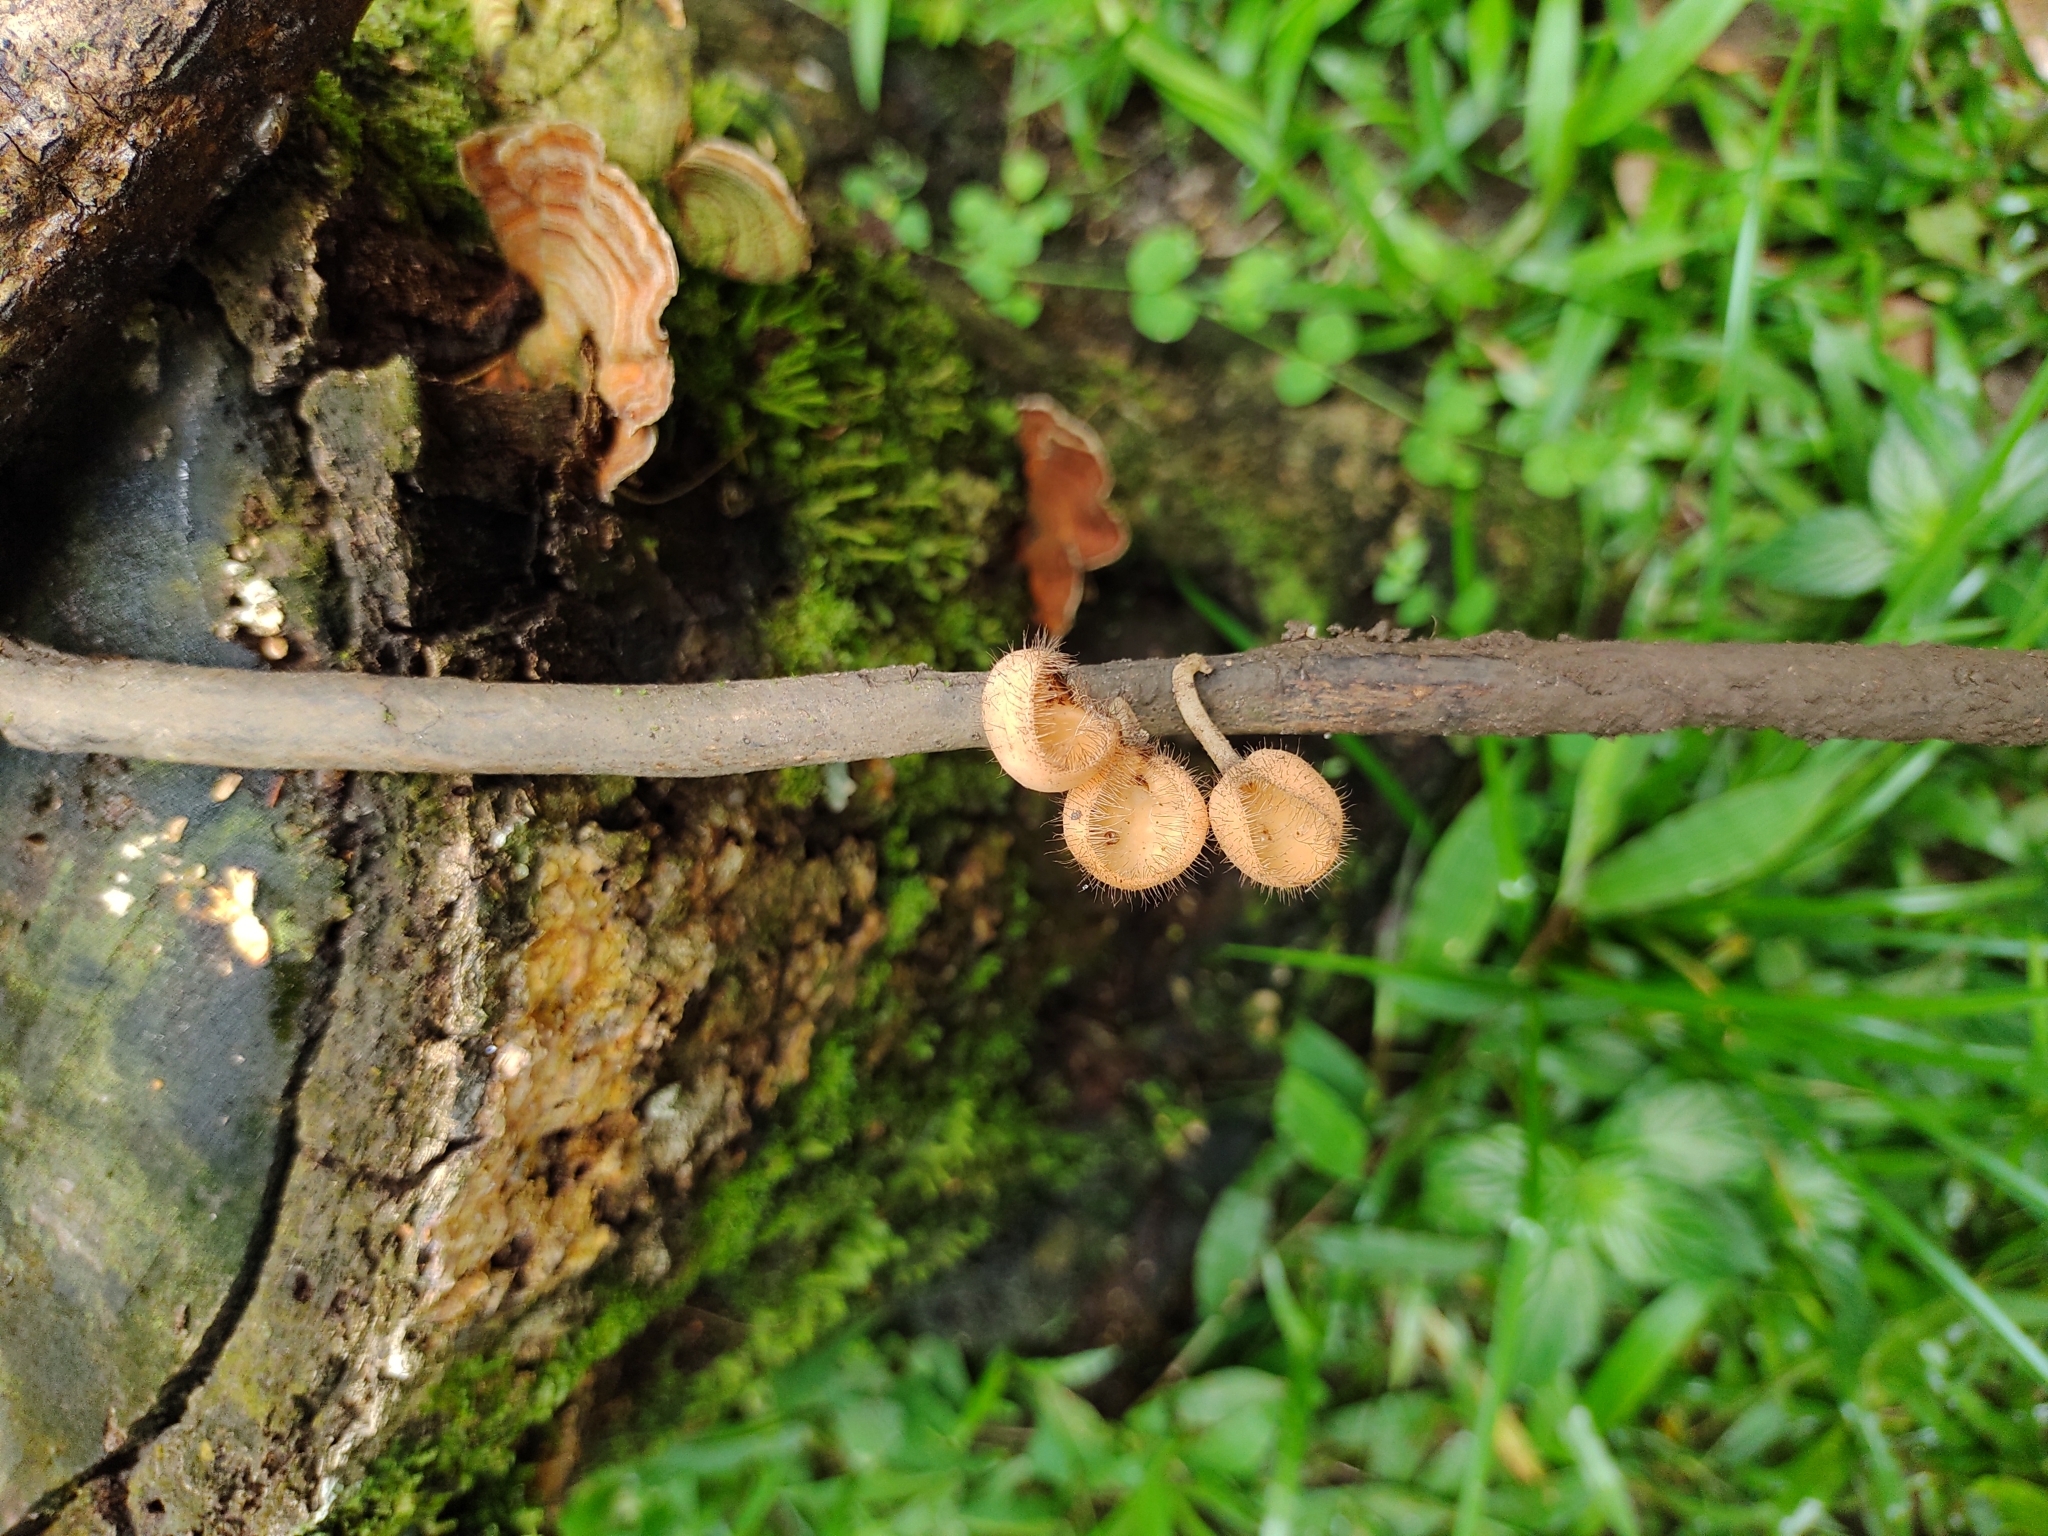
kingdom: Fungi
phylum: Ascomycota
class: Pezizomycetes
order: Pezizales
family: Sarcoscyphaceae
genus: Cookeina
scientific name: Cookeina tricholoma
